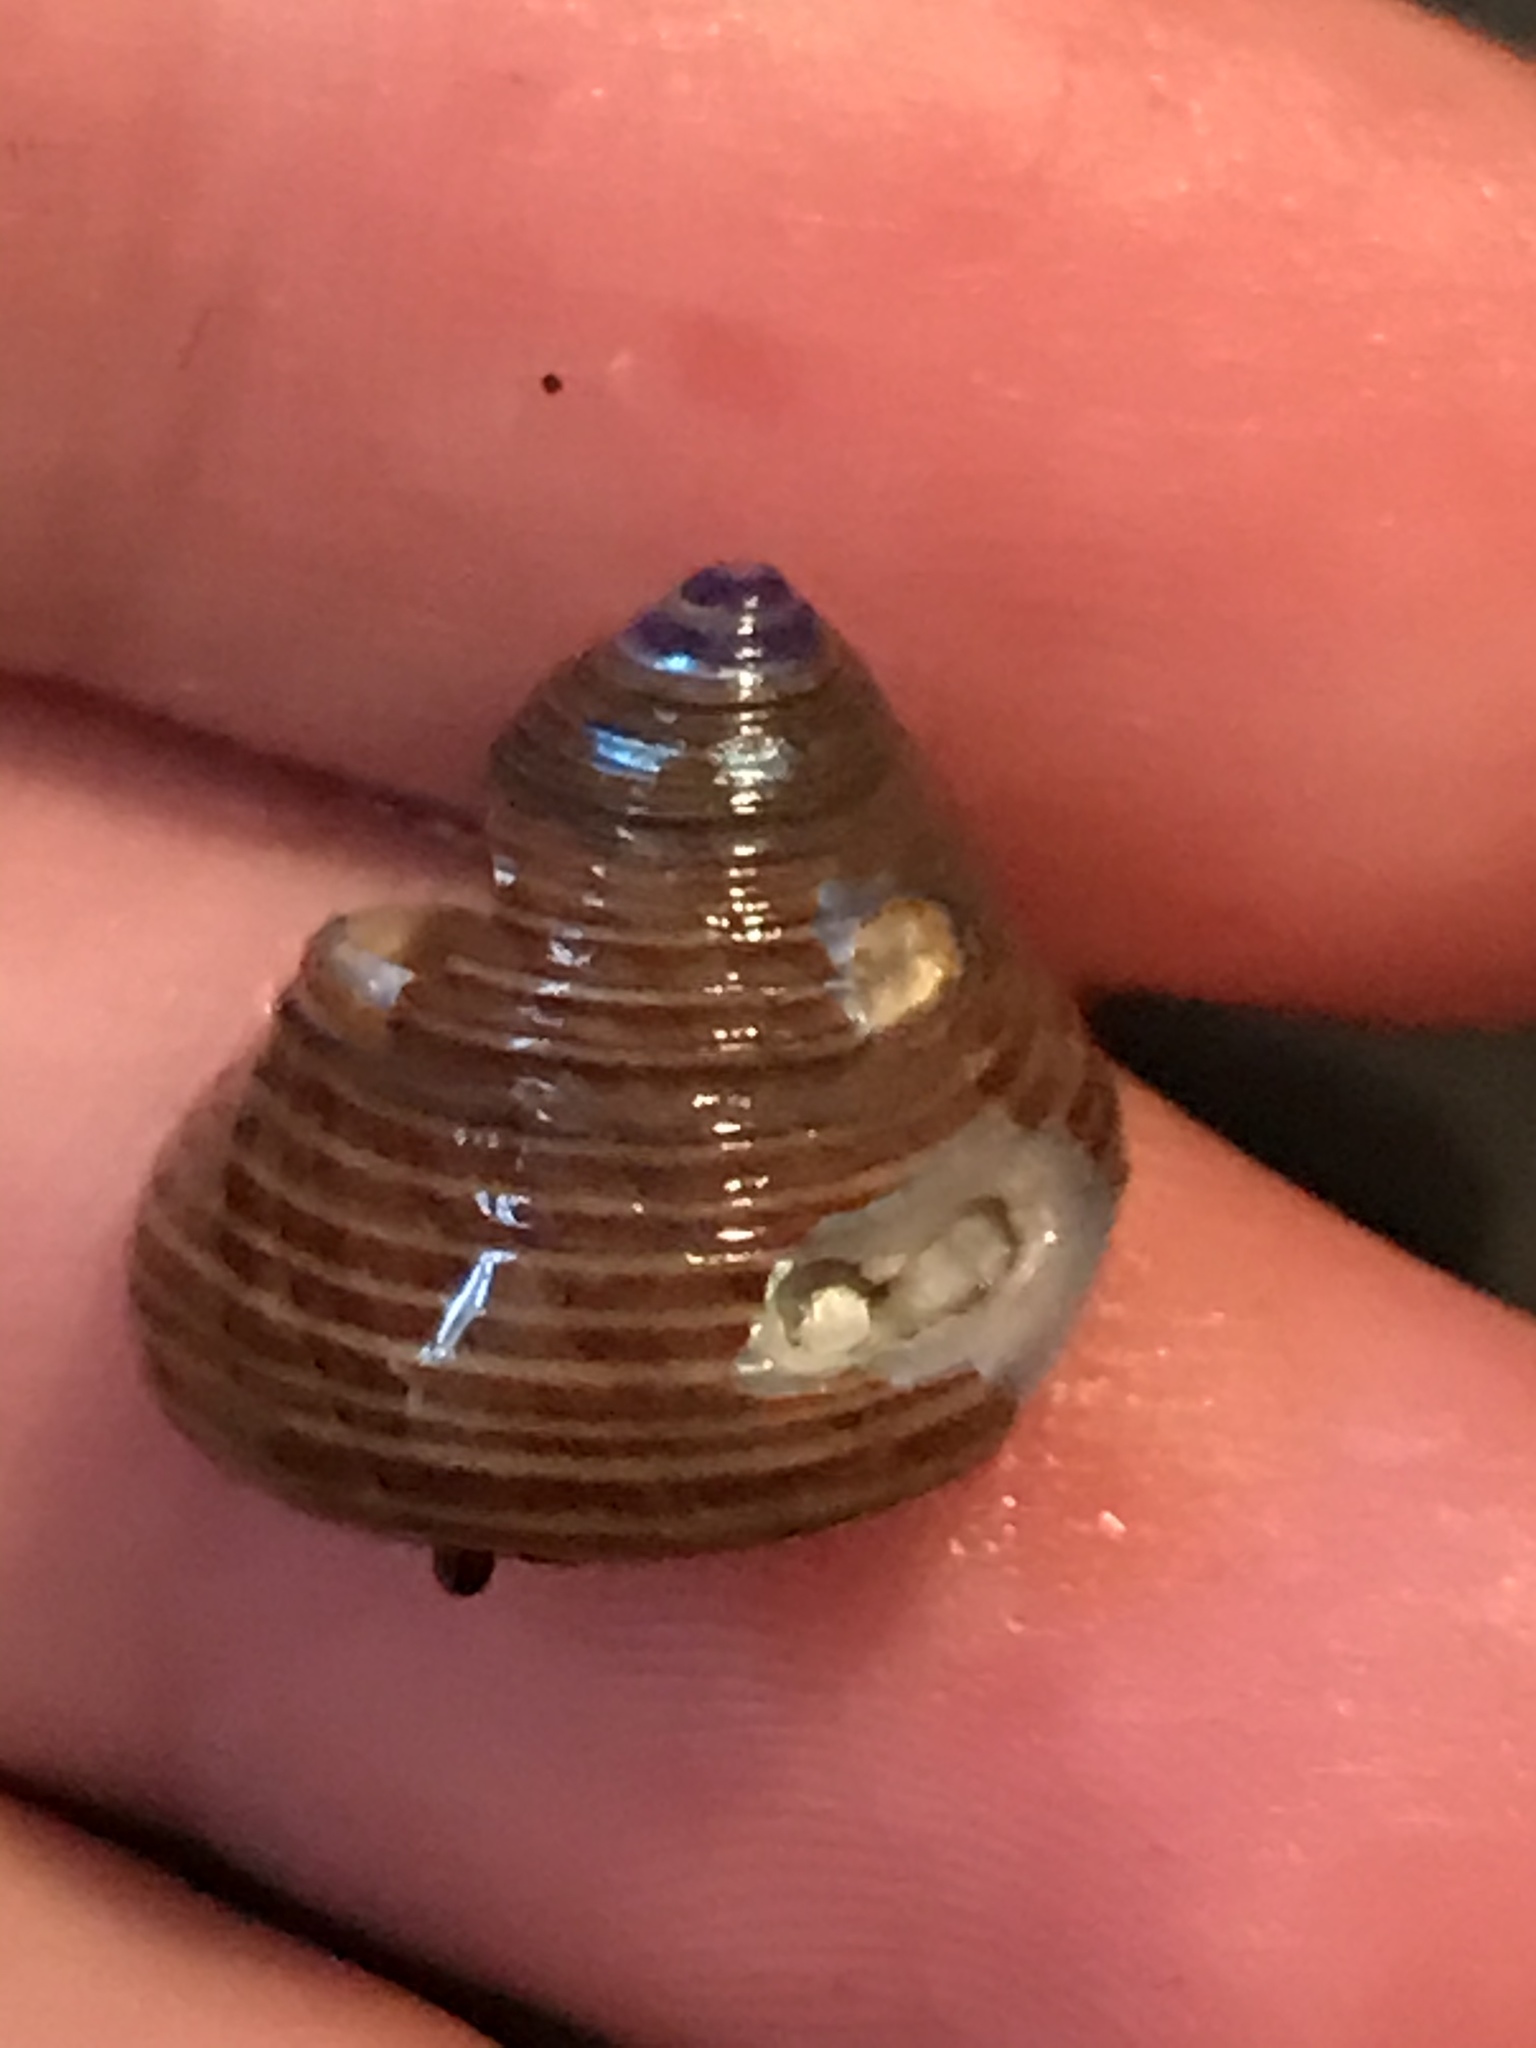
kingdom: Animalia
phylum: Mollusca
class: Gastropoda
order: Trochida
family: Calliostomatidae
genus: Calliostoma
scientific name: Calliostoma ligatum
